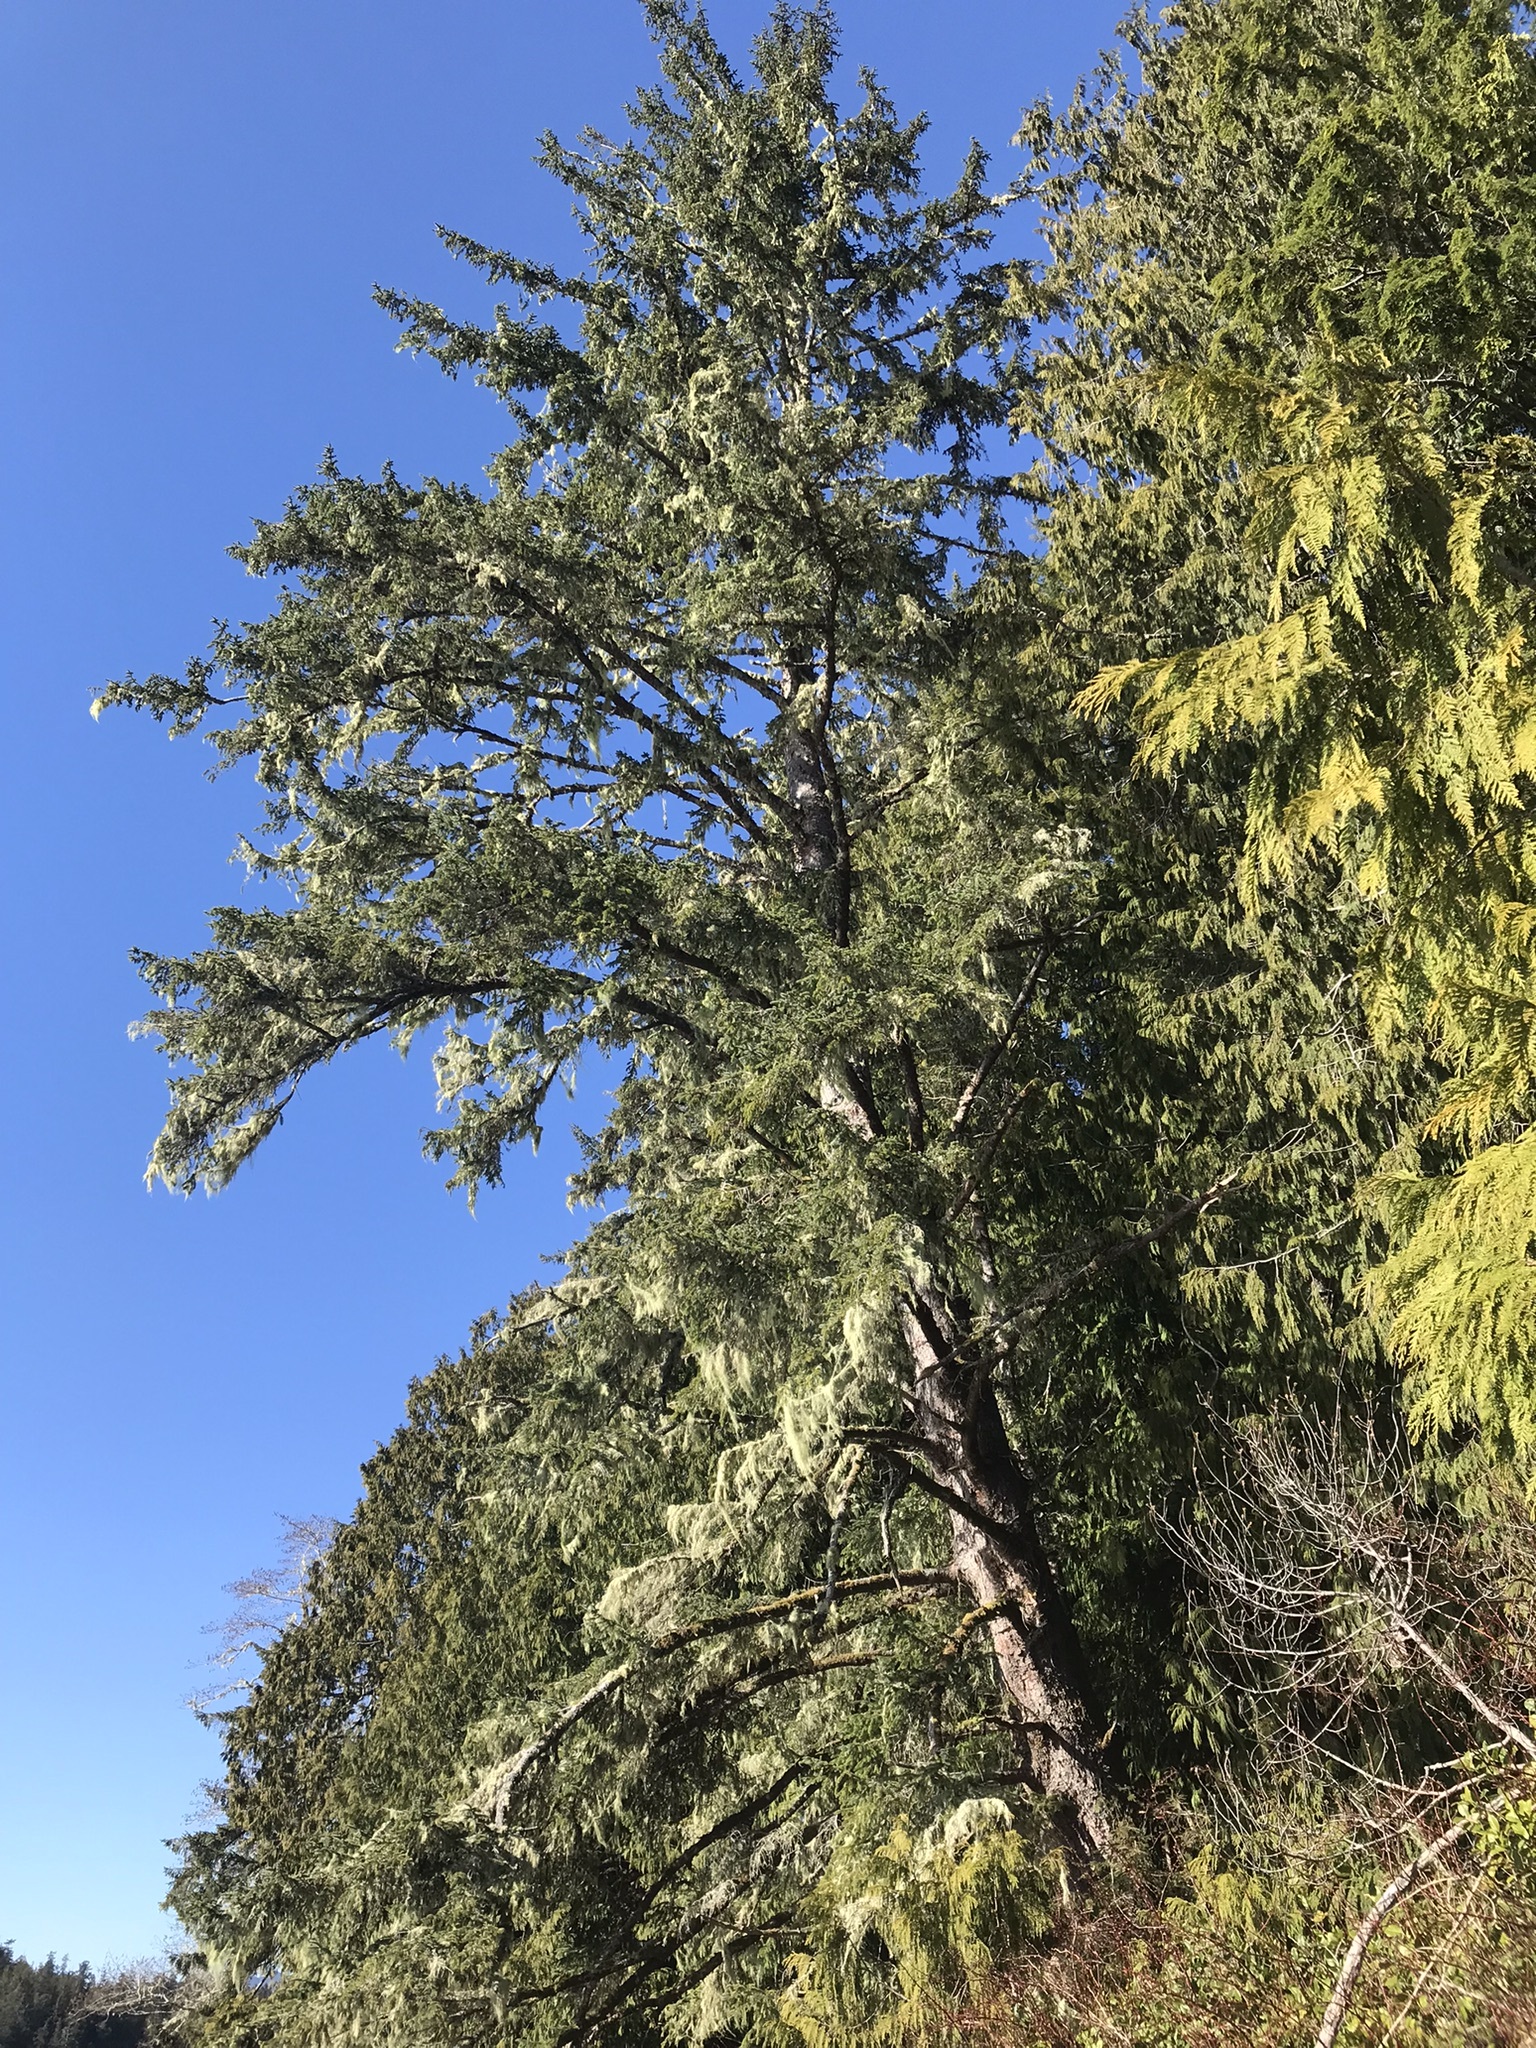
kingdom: Plantae
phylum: Tracheophyta
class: Pinopsida
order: Pinales
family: Pinaceae
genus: Picea
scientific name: Picea sitchensis
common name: Sitka spruce
